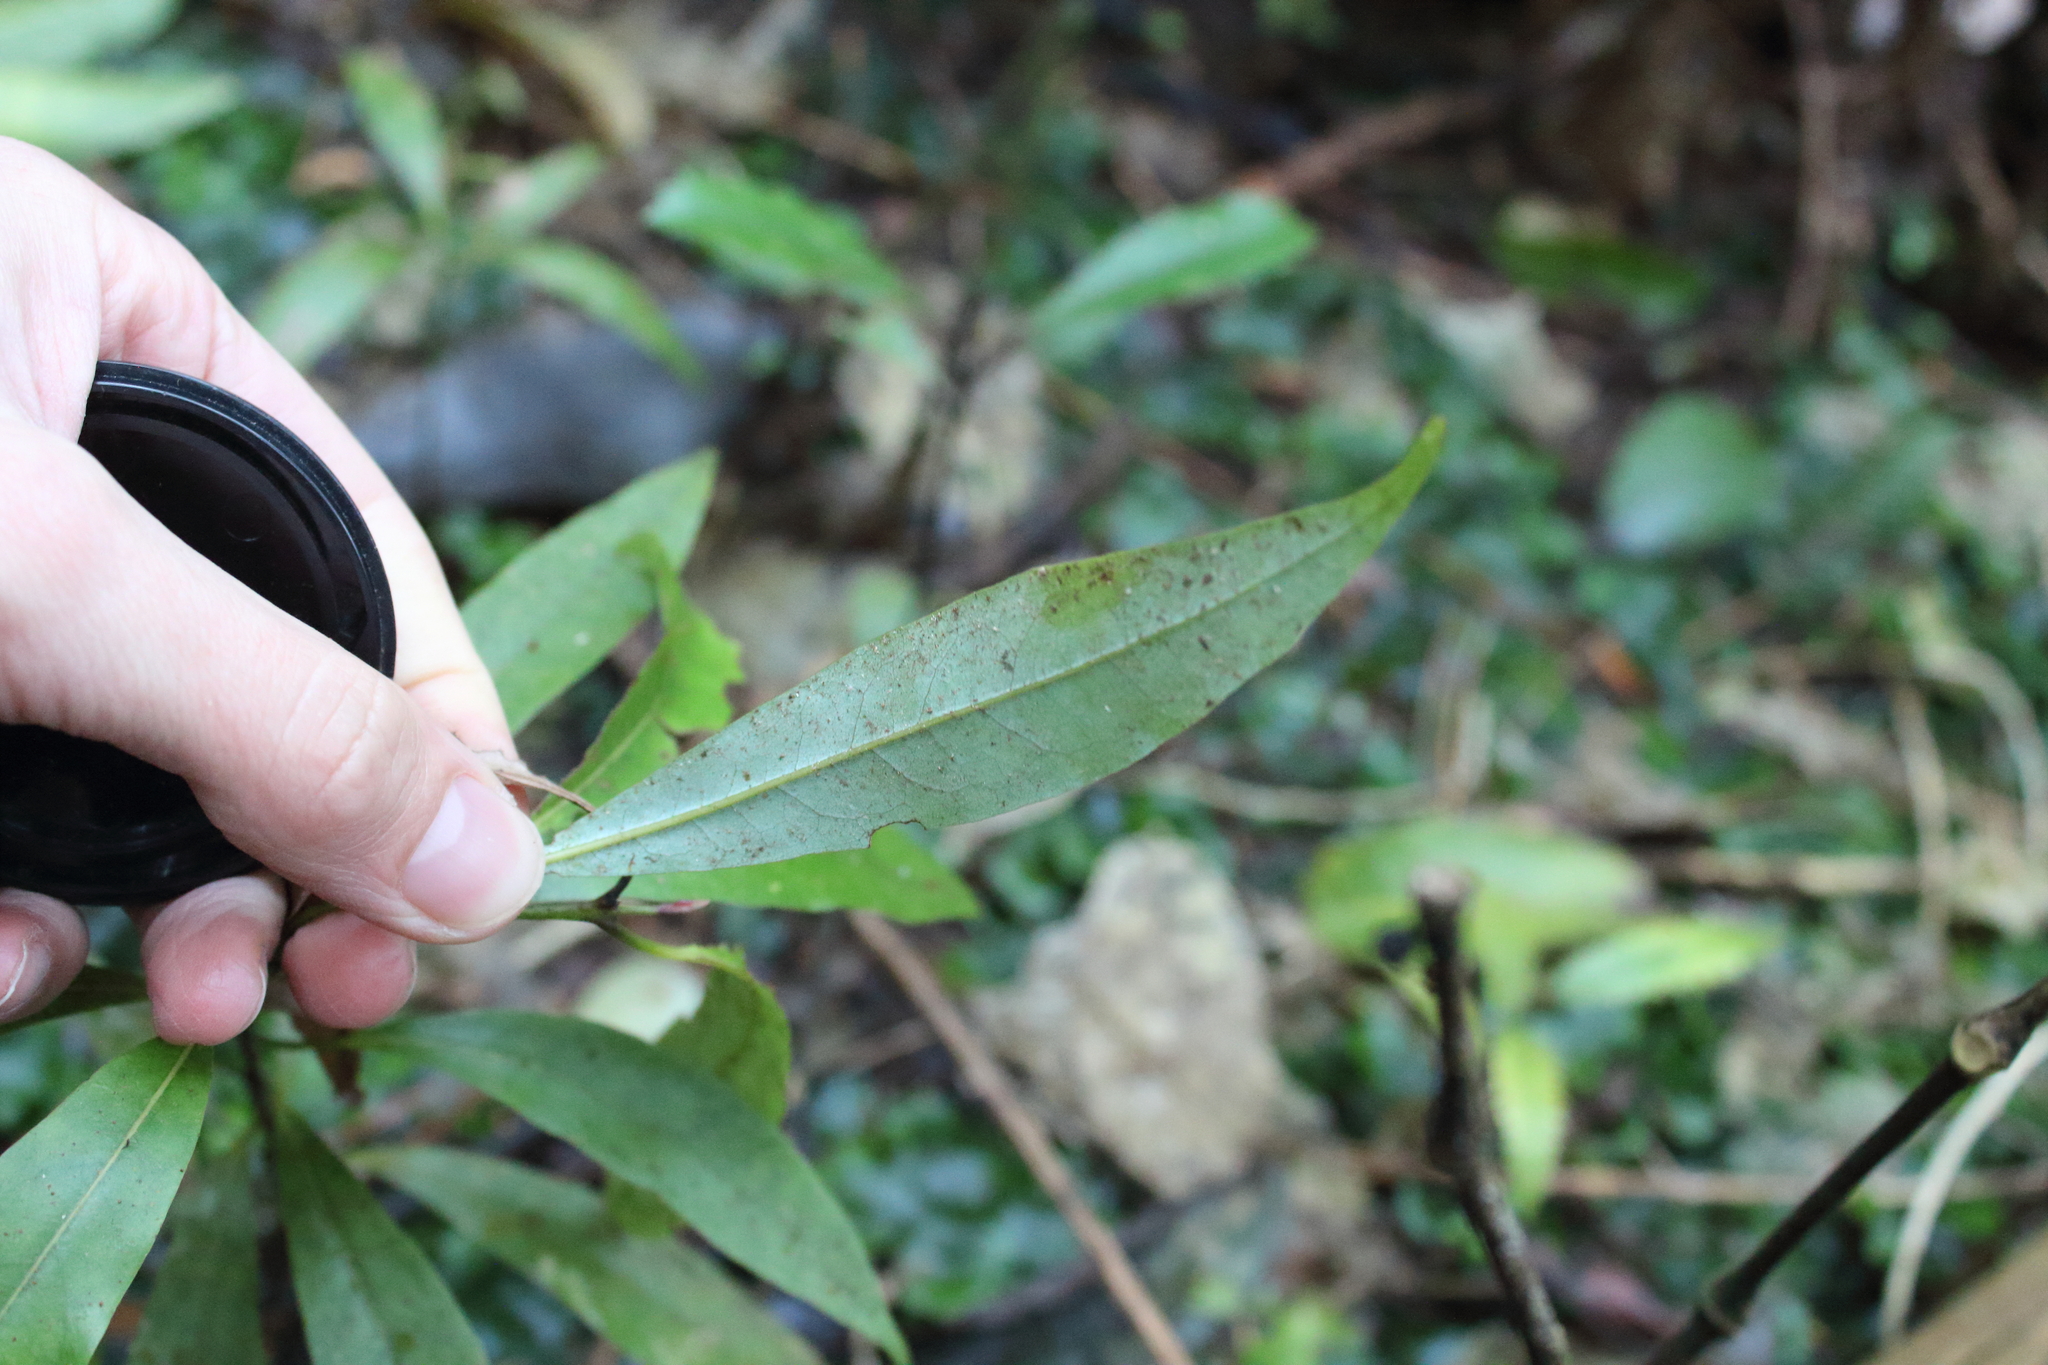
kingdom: Plantae
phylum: Tracheophyta
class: Magnoliopsida
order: Laurales
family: Lauraceae
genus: Beilschmiedia
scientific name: Beilschmiedia tawa
